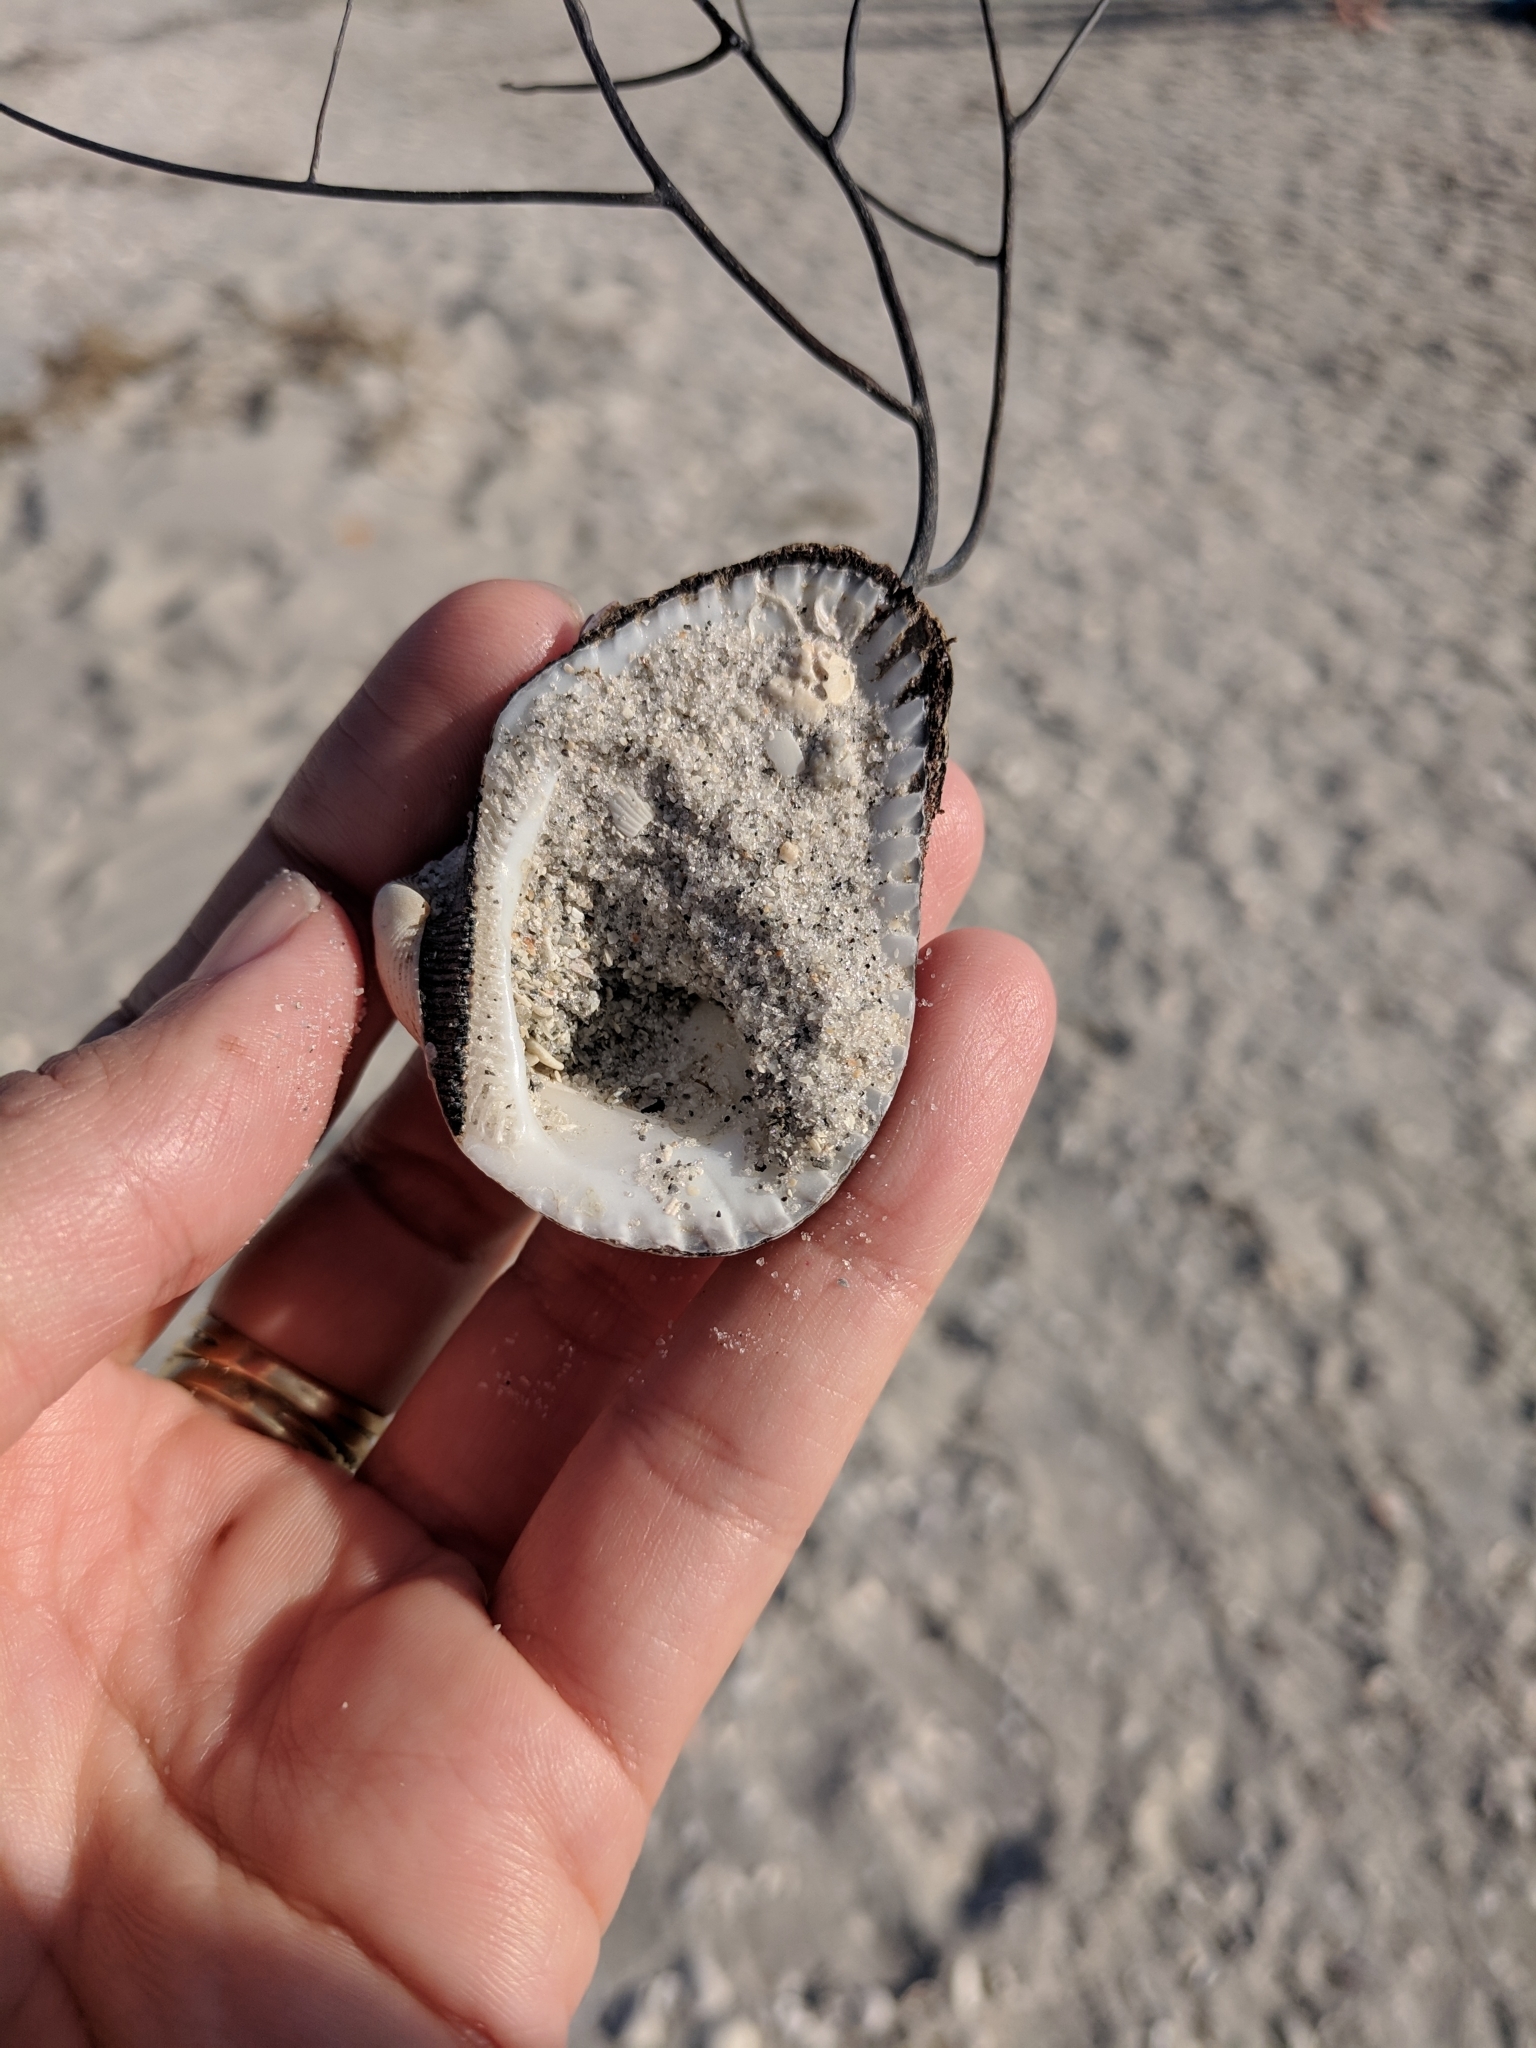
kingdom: Animalia
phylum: Mollusca
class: Bivalvia
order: Arcida
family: Noetiidae
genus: Noetia
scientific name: Noetia ponderosa
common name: Ponderous ark
